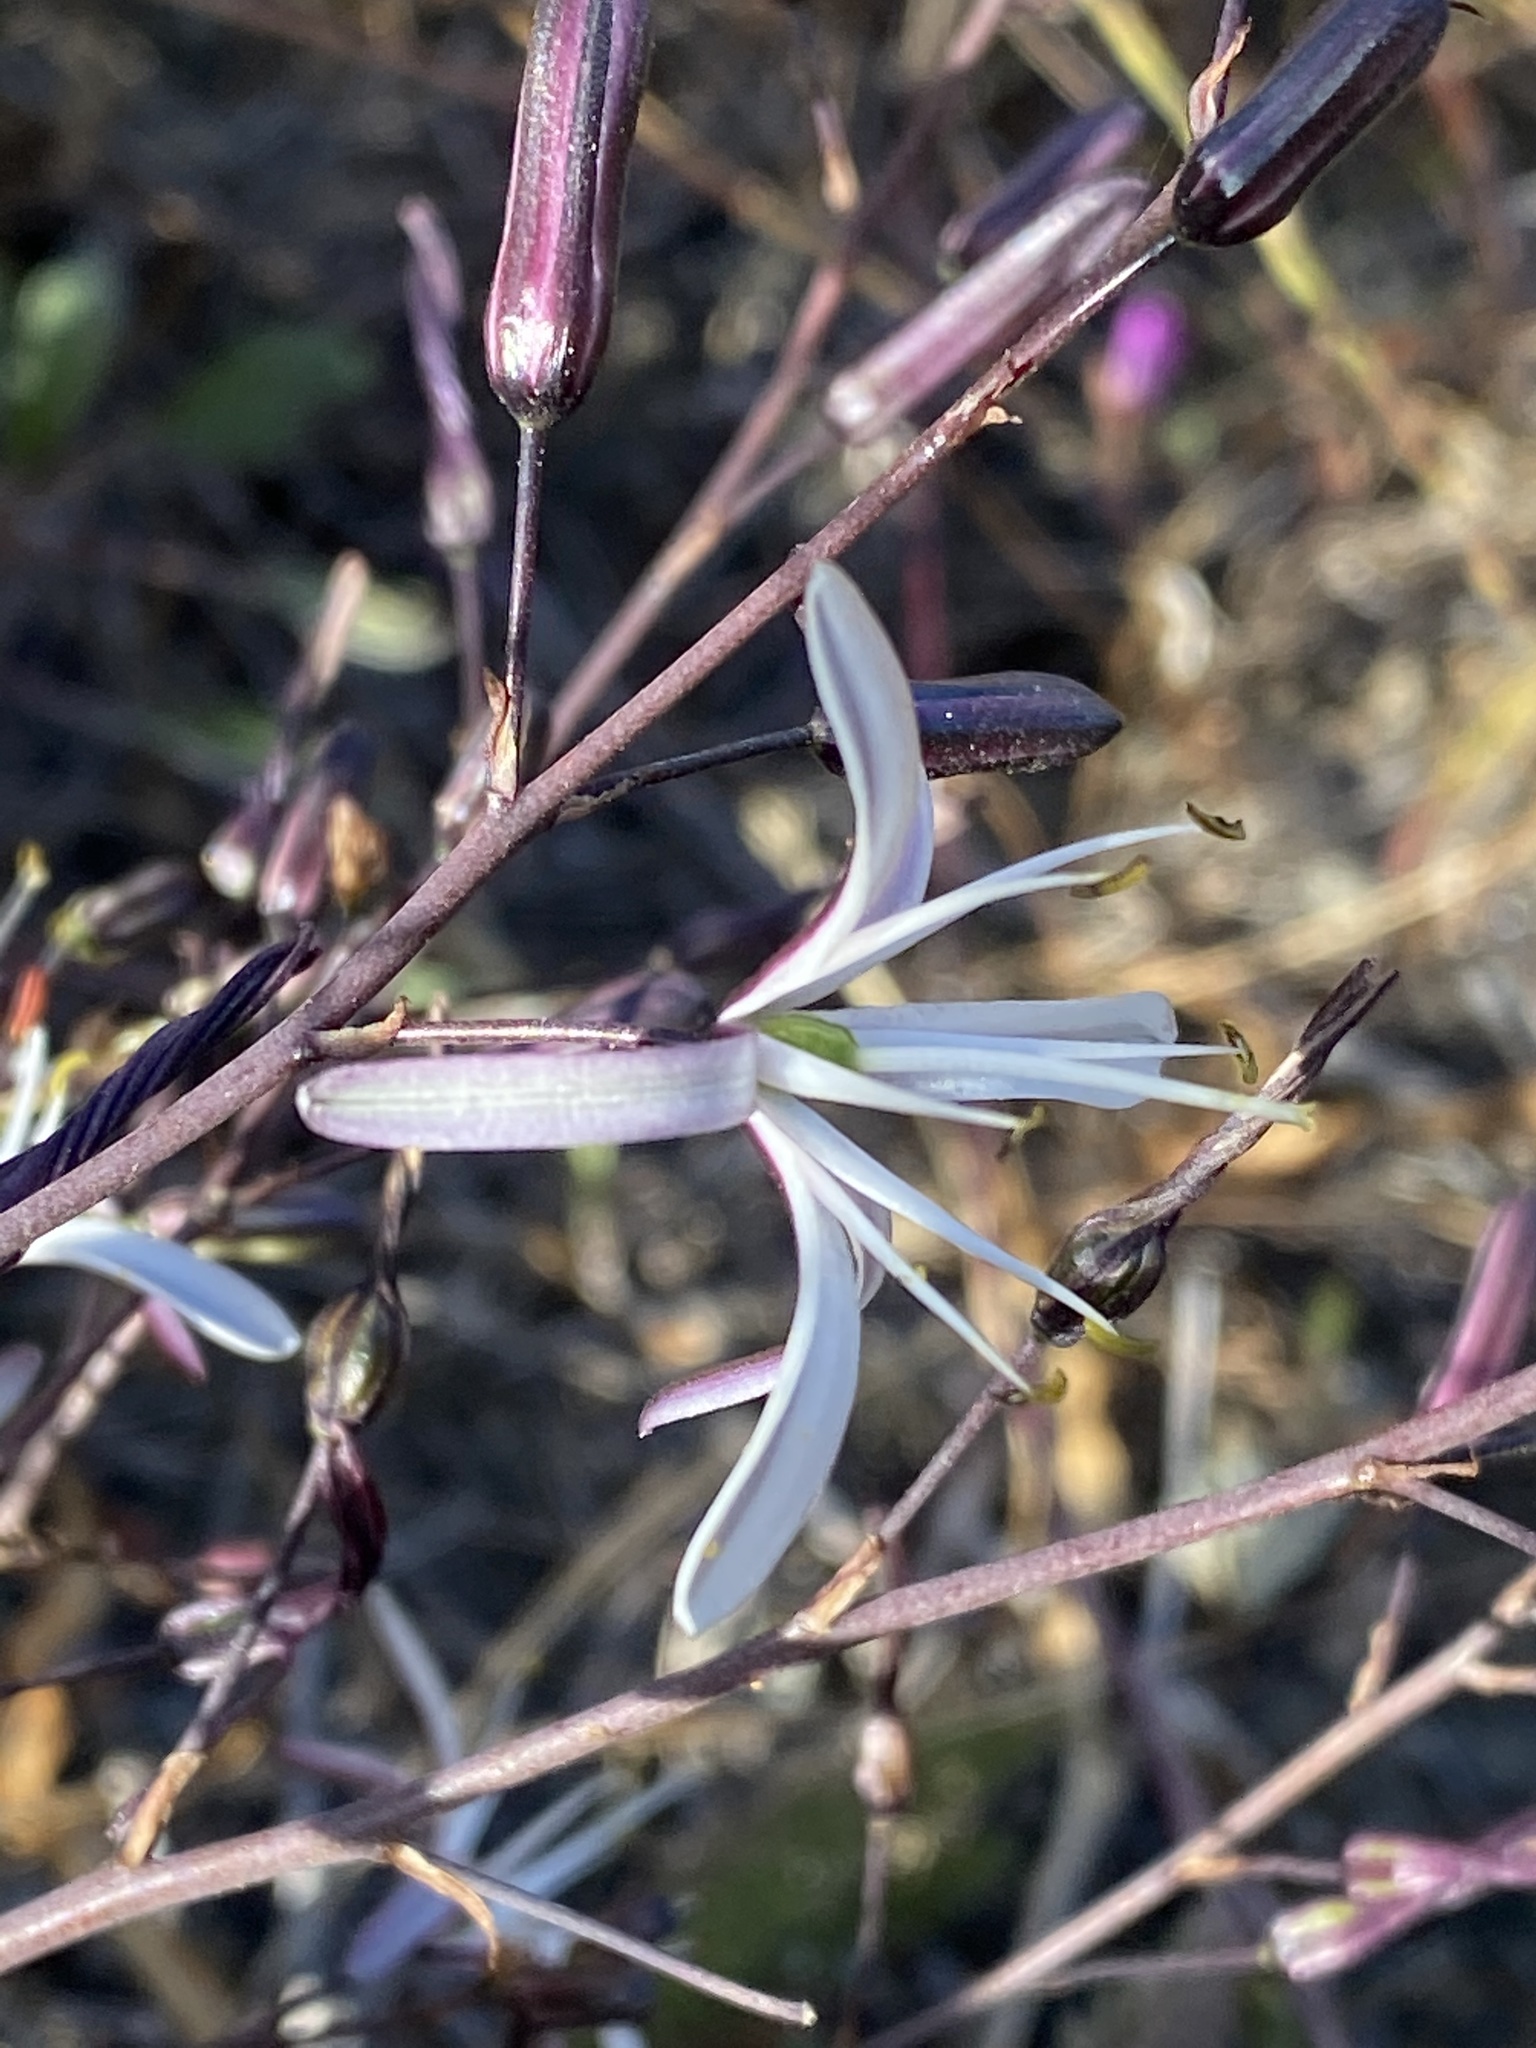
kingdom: Plantae
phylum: Tracheophyta
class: Liliopsida
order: Asparagales
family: Asparagaceae
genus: Chlorogalum
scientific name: Chlorogalum pomeridianum
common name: Amole
